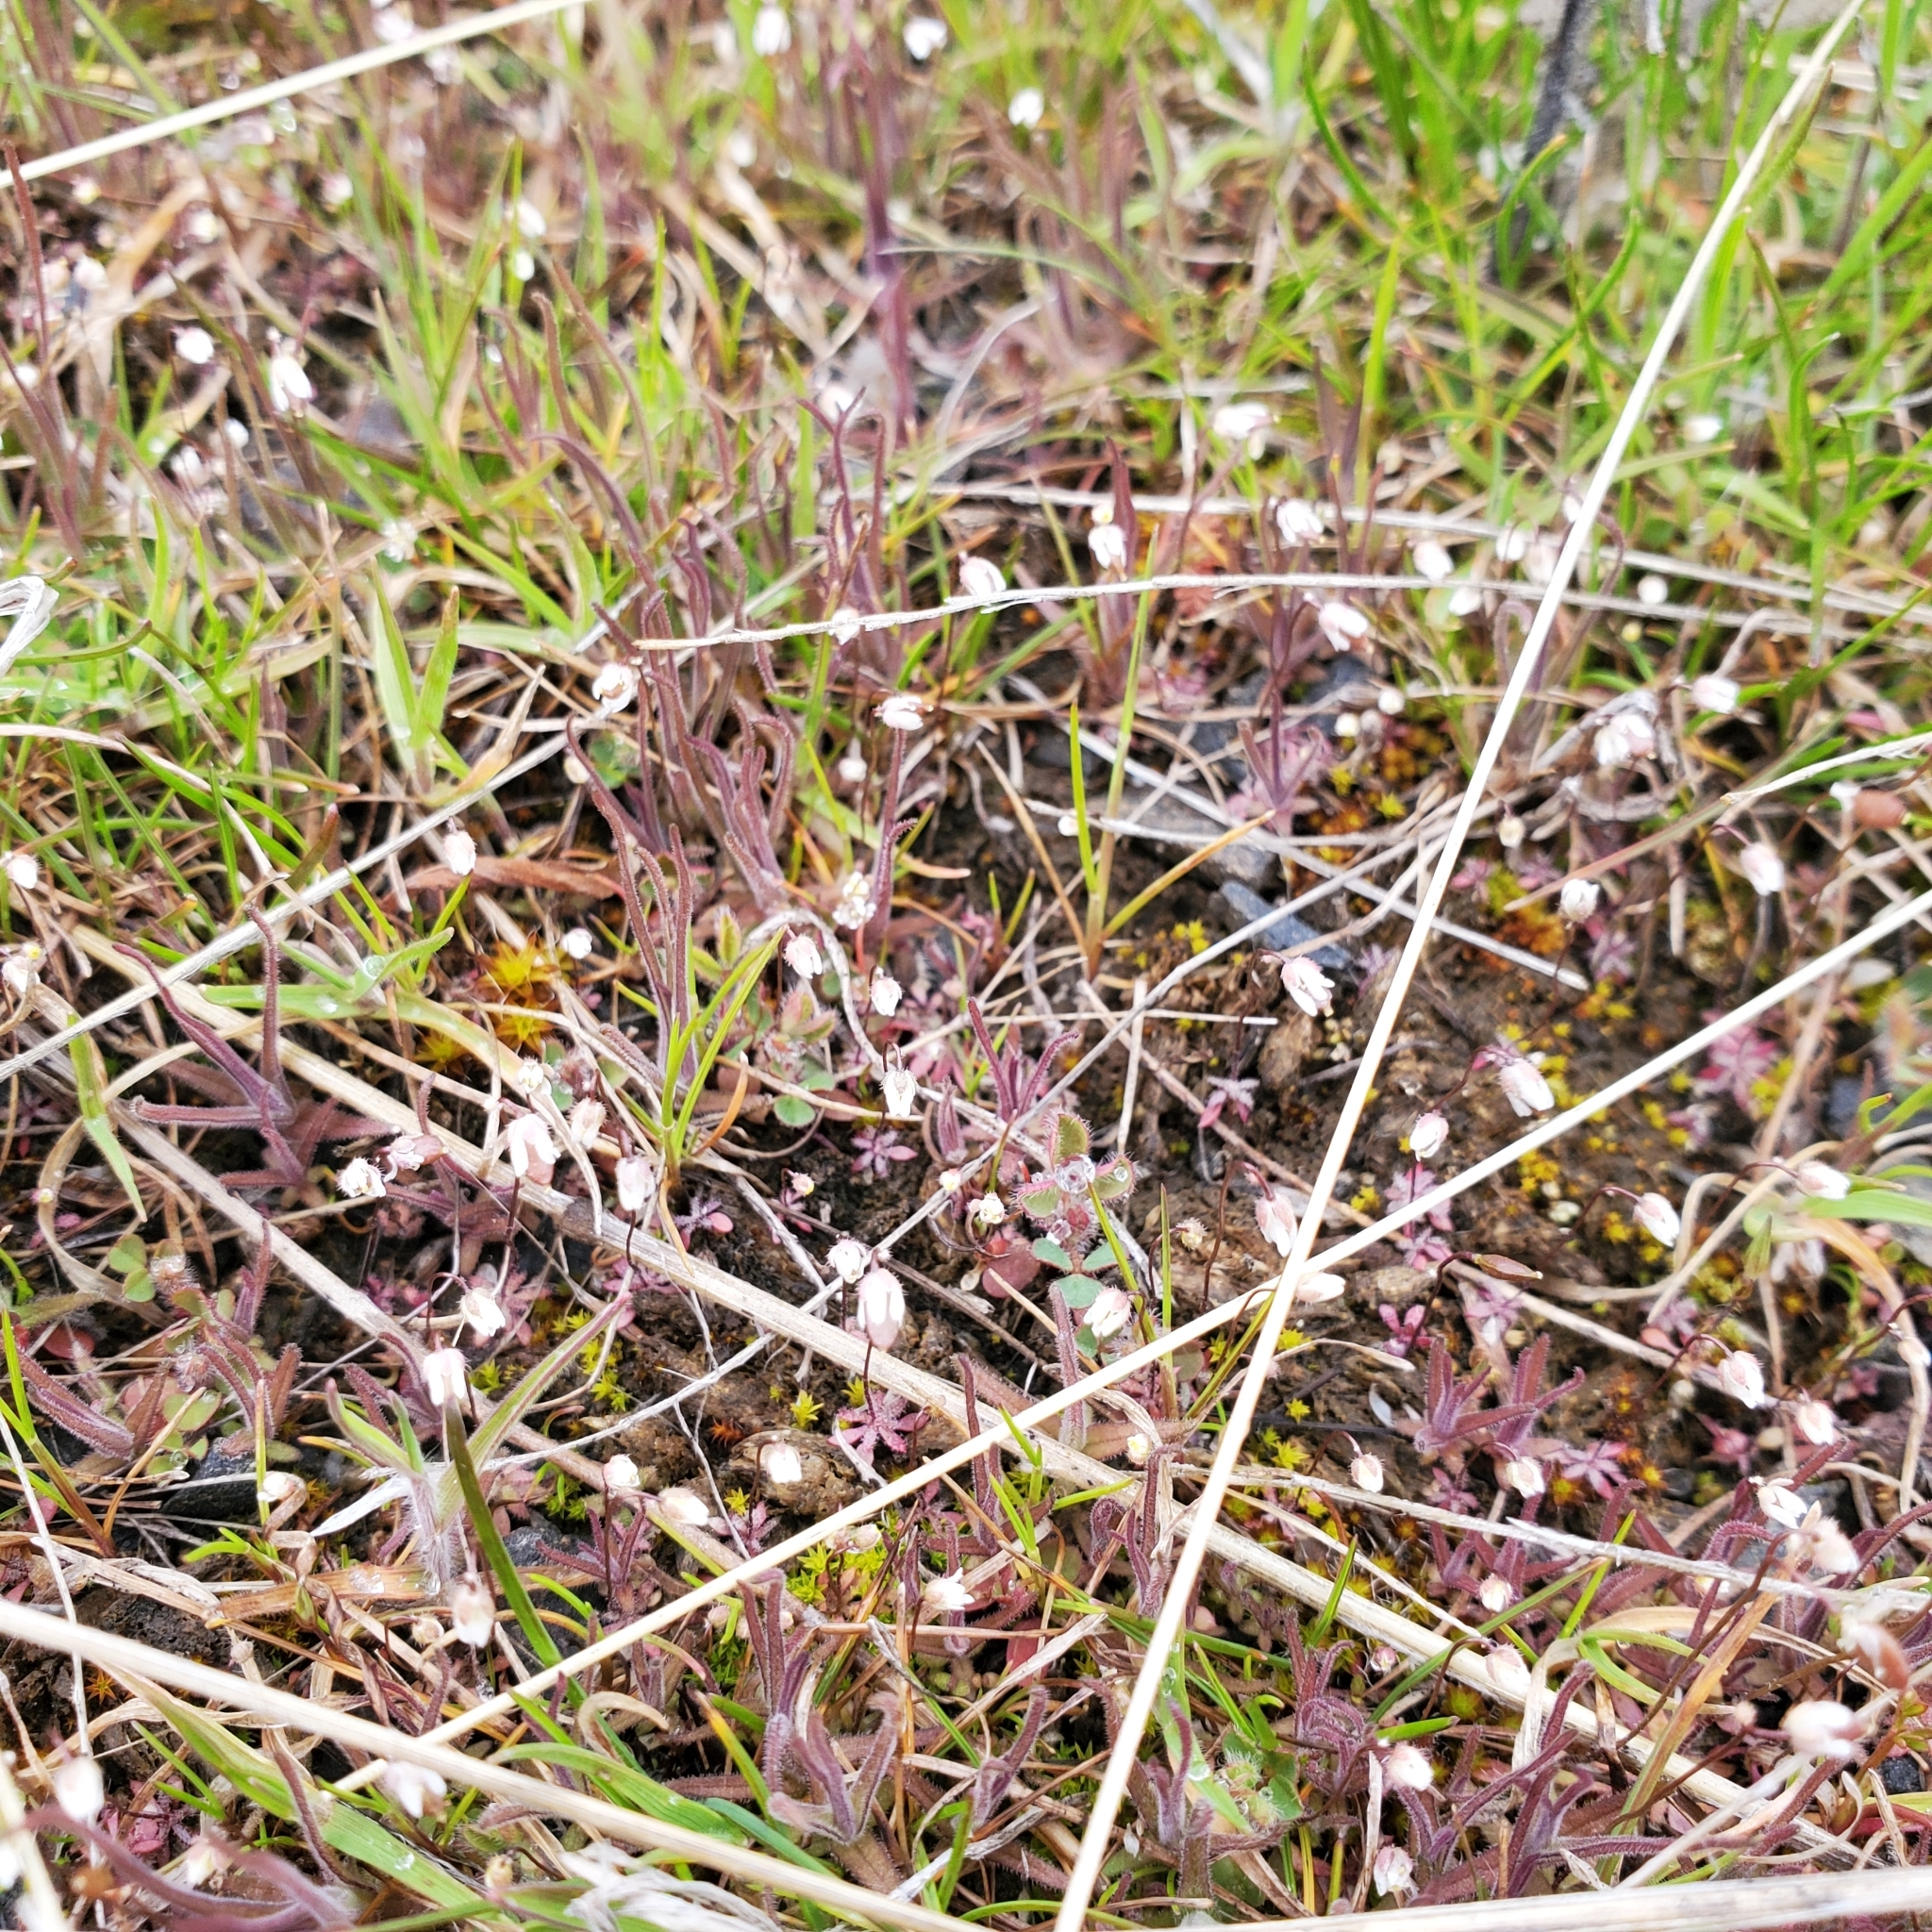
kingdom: Plantae
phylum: Tracheophyta
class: Magnoliopsida
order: Brassicales
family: Brassicaceae
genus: Draba
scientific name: Draba verna
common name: Spring draba
